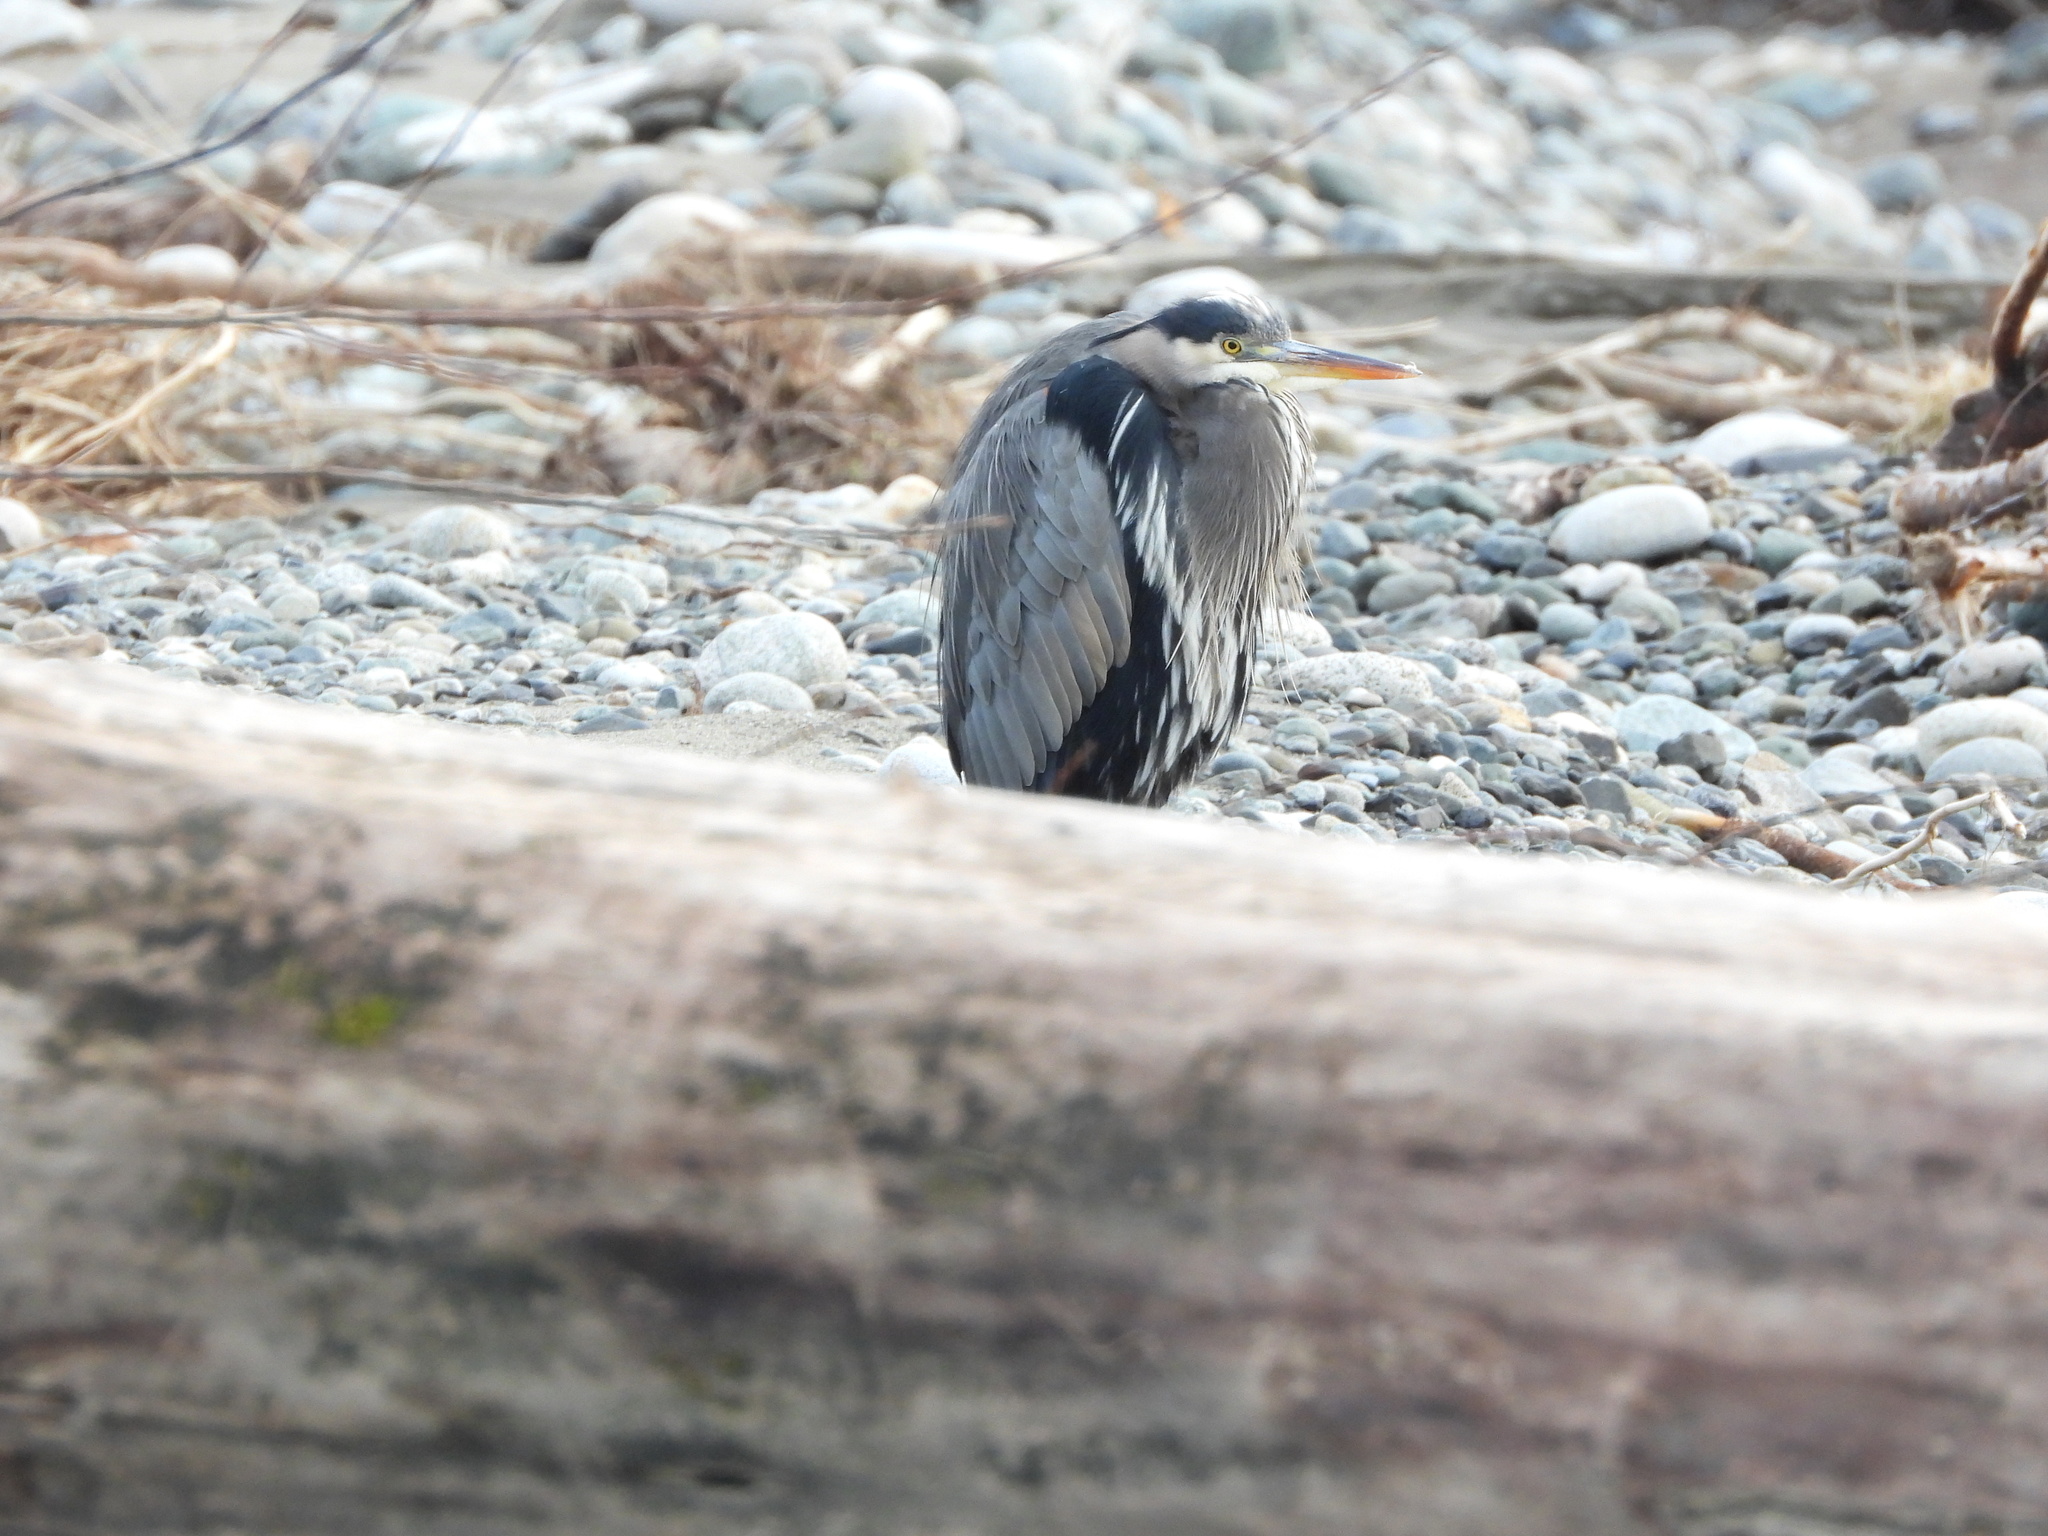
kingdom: Animalia
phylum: Chordata
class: Aves
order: Pelecaniformes
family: Ardeidae
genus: Ardea
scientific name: Ardea herodias
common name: Great blue heron
